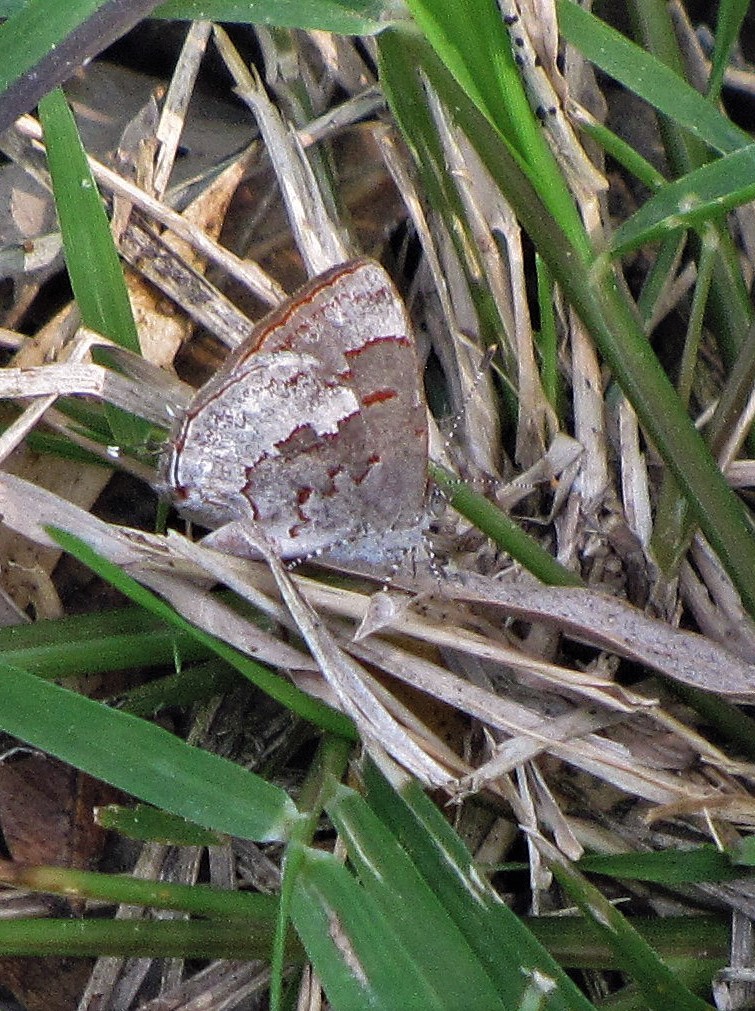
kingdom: Animalia
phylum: Arthropoda
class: Insecta
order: Lepidoptera
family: Lycaenidae
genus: Thecla
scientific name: Thecla cruenta
